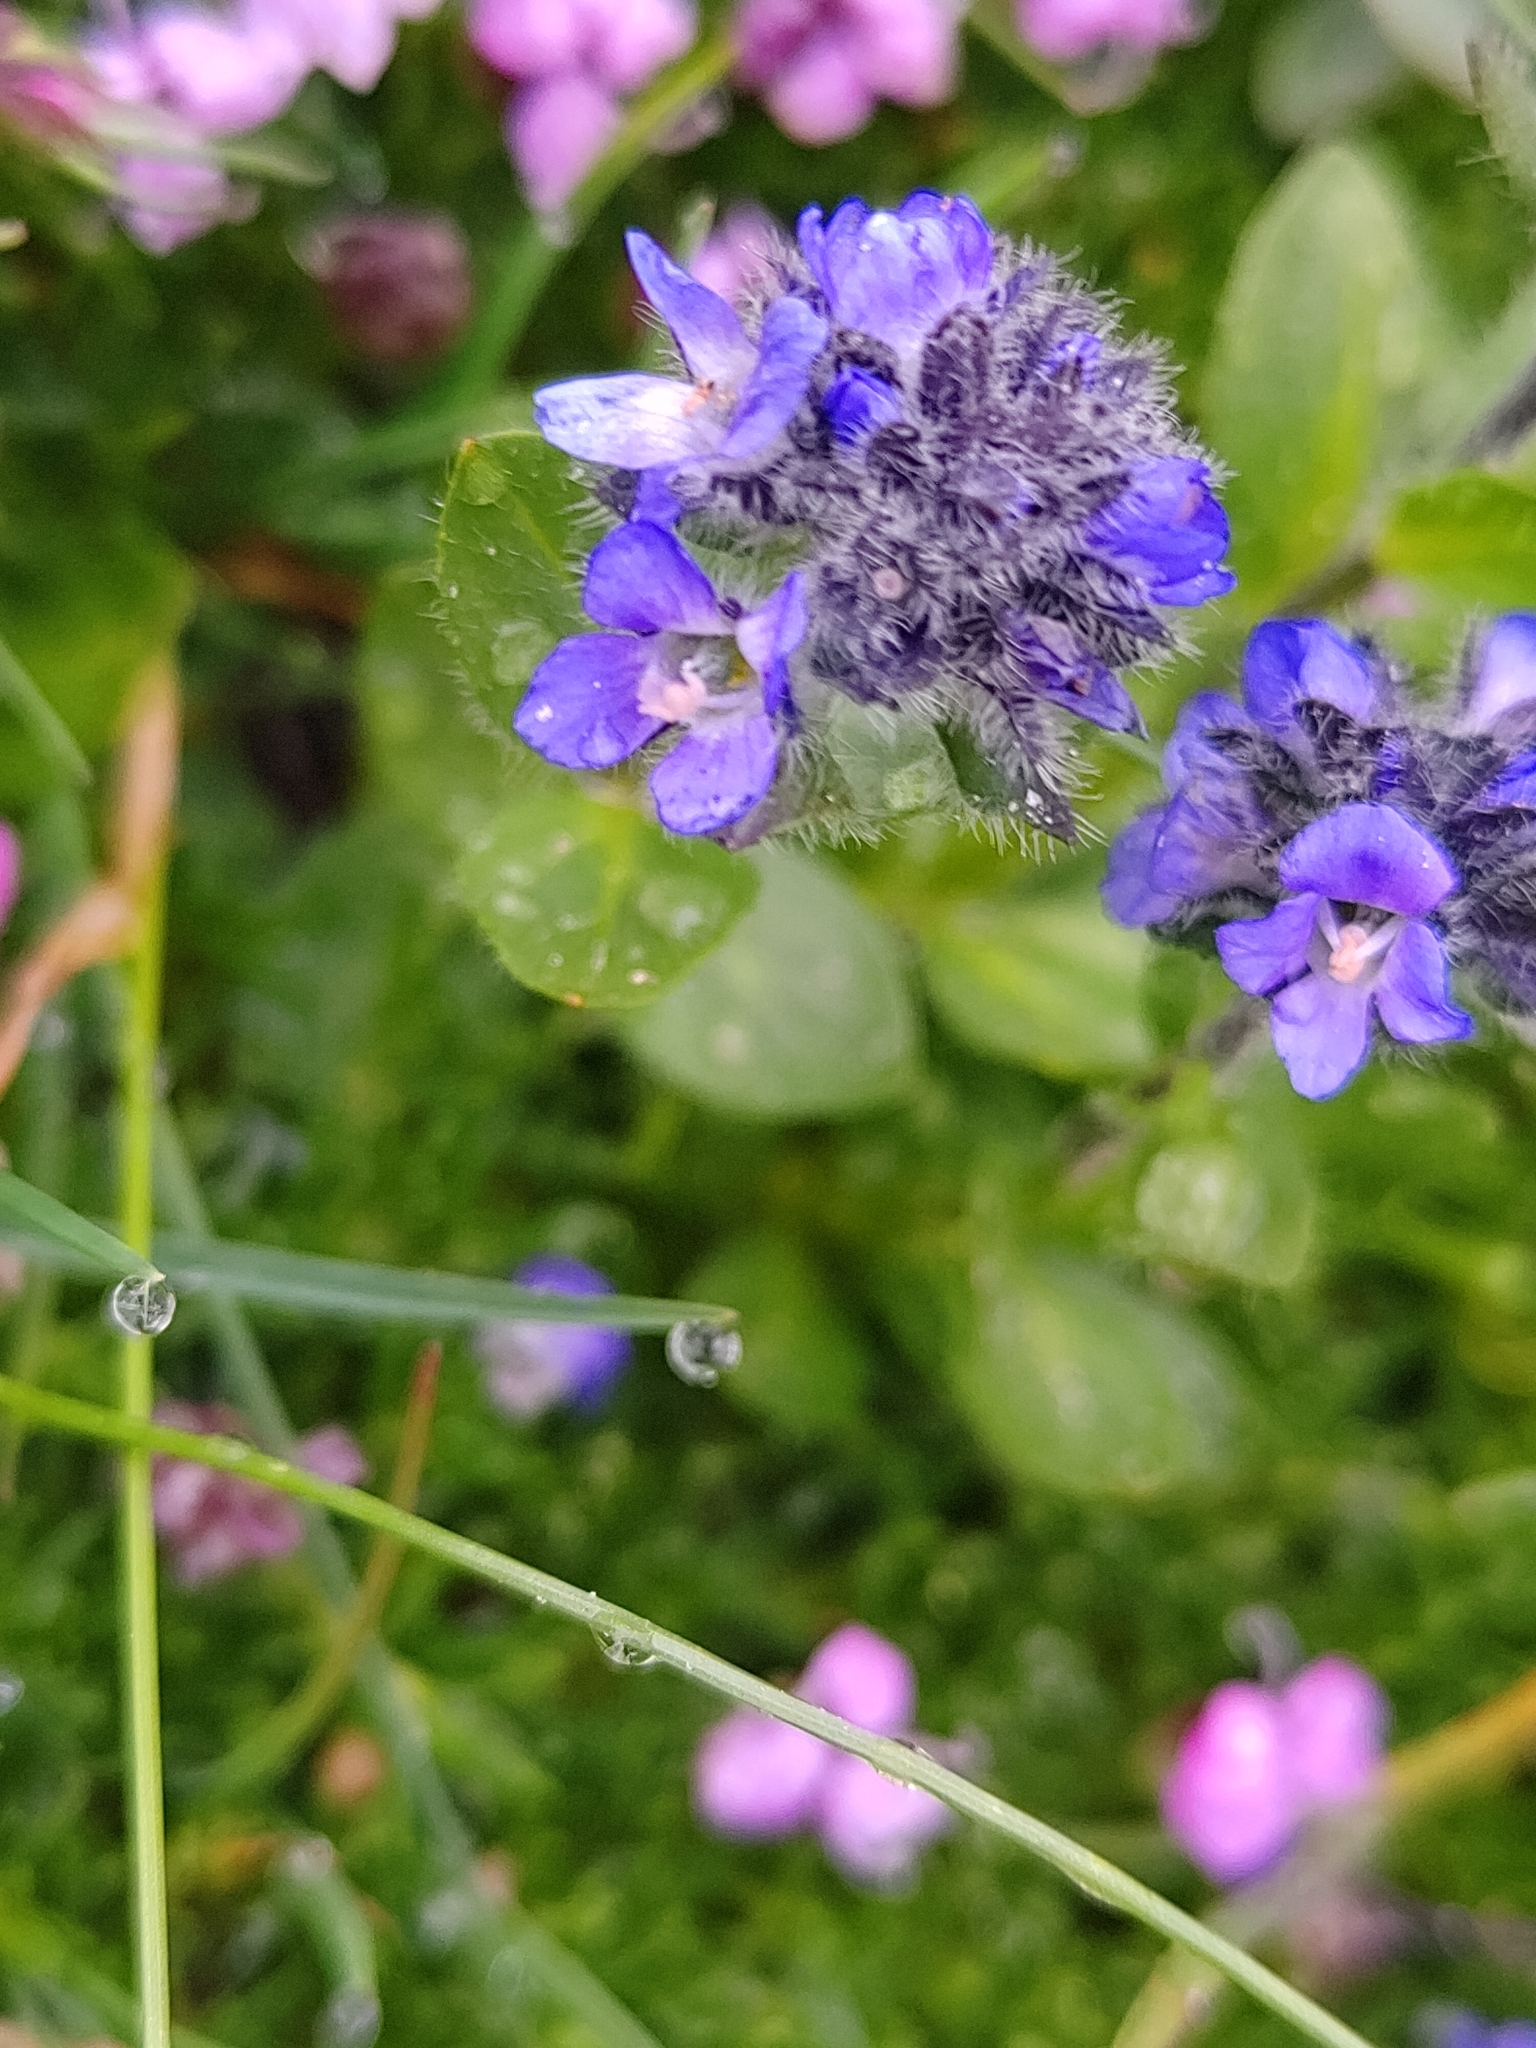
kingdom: Plantae
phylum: Tracheophyta
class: Magnoliopsida
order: Lamiales
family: Plantaginaceae
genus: Veronica
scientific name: Veronica alpina
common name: Alpine speedwell
